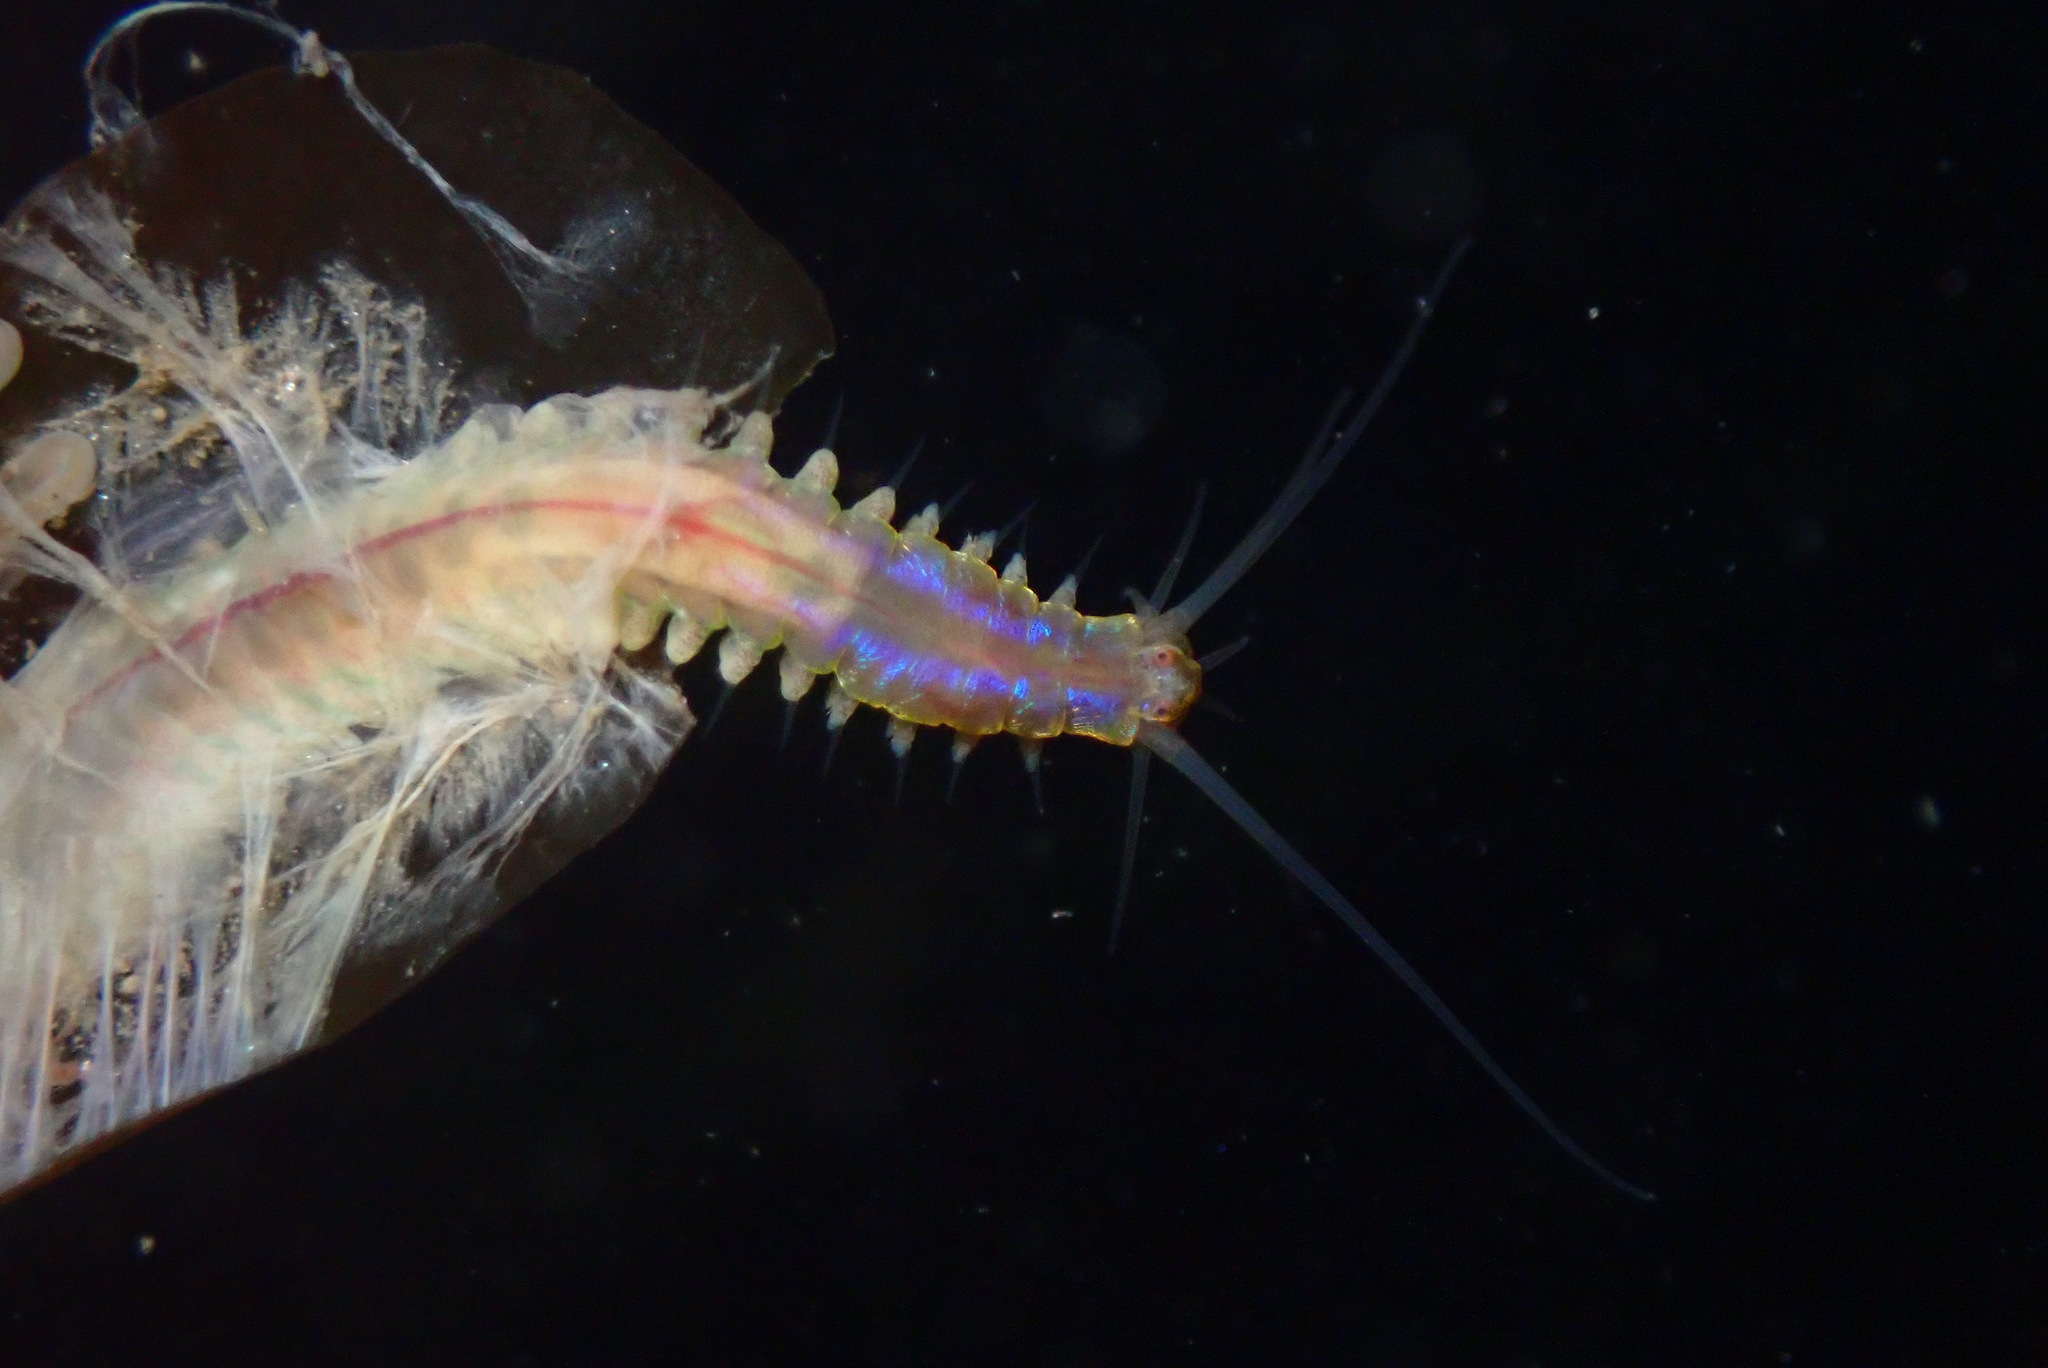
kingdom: Animalia
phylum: Annelida
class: Polychaeta
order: Phyllodocida
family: Nereididae
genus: Platynereis
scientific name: Platynereis bicanaliculata
